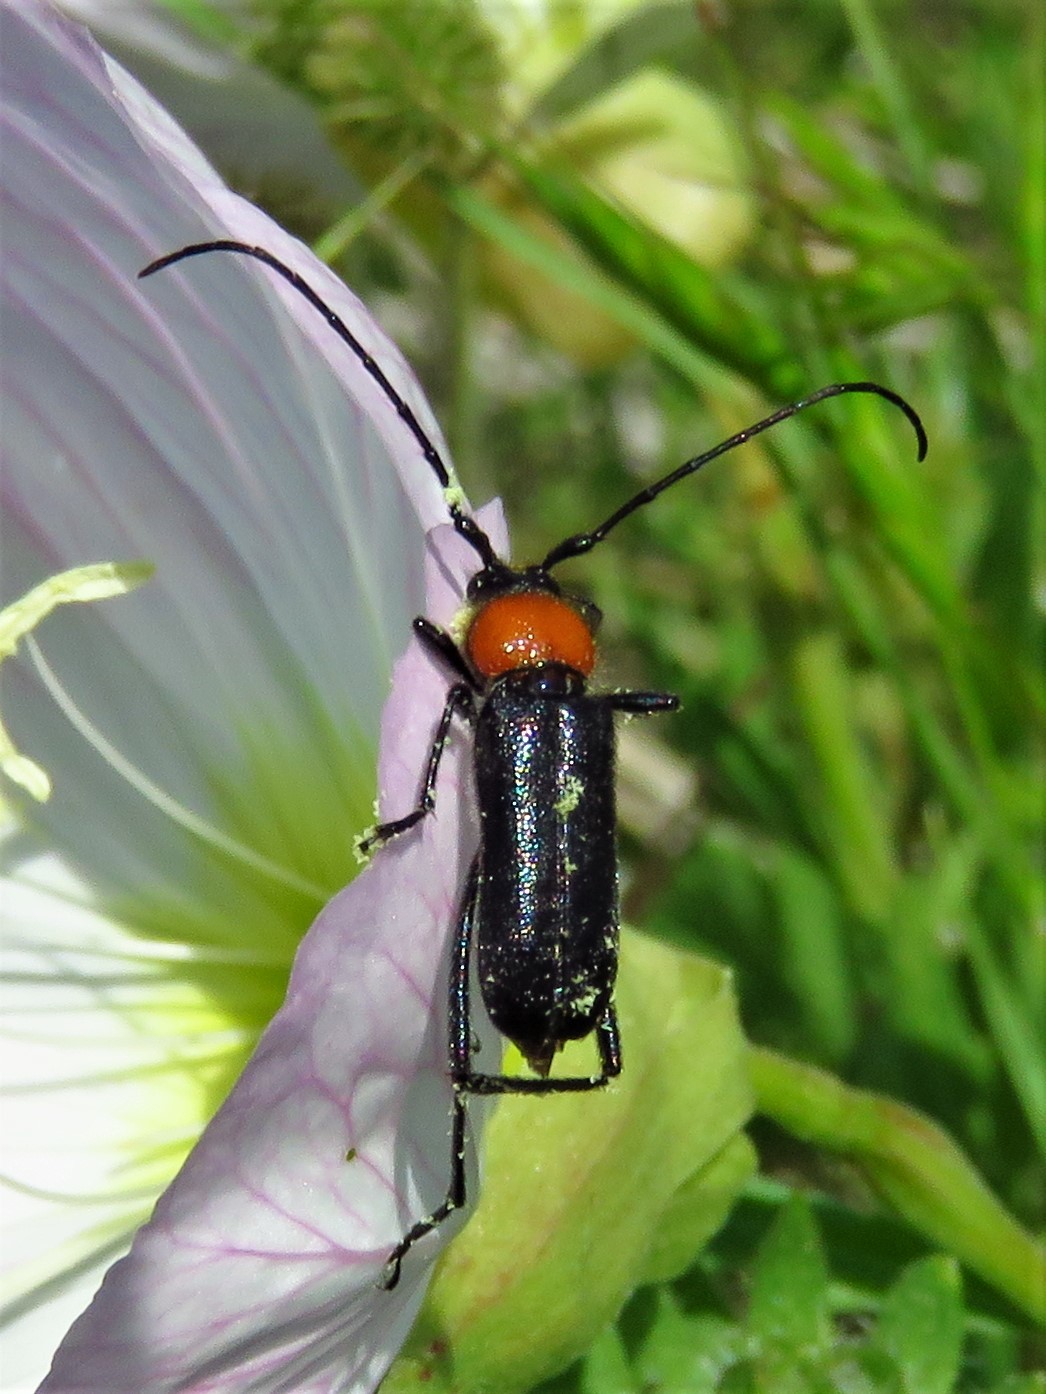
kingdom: Animalia
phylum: Arthropoda
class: Insecta
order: Coleoptera
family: Cerambycidae
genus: Batyle
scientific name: Batyle ignicollis
